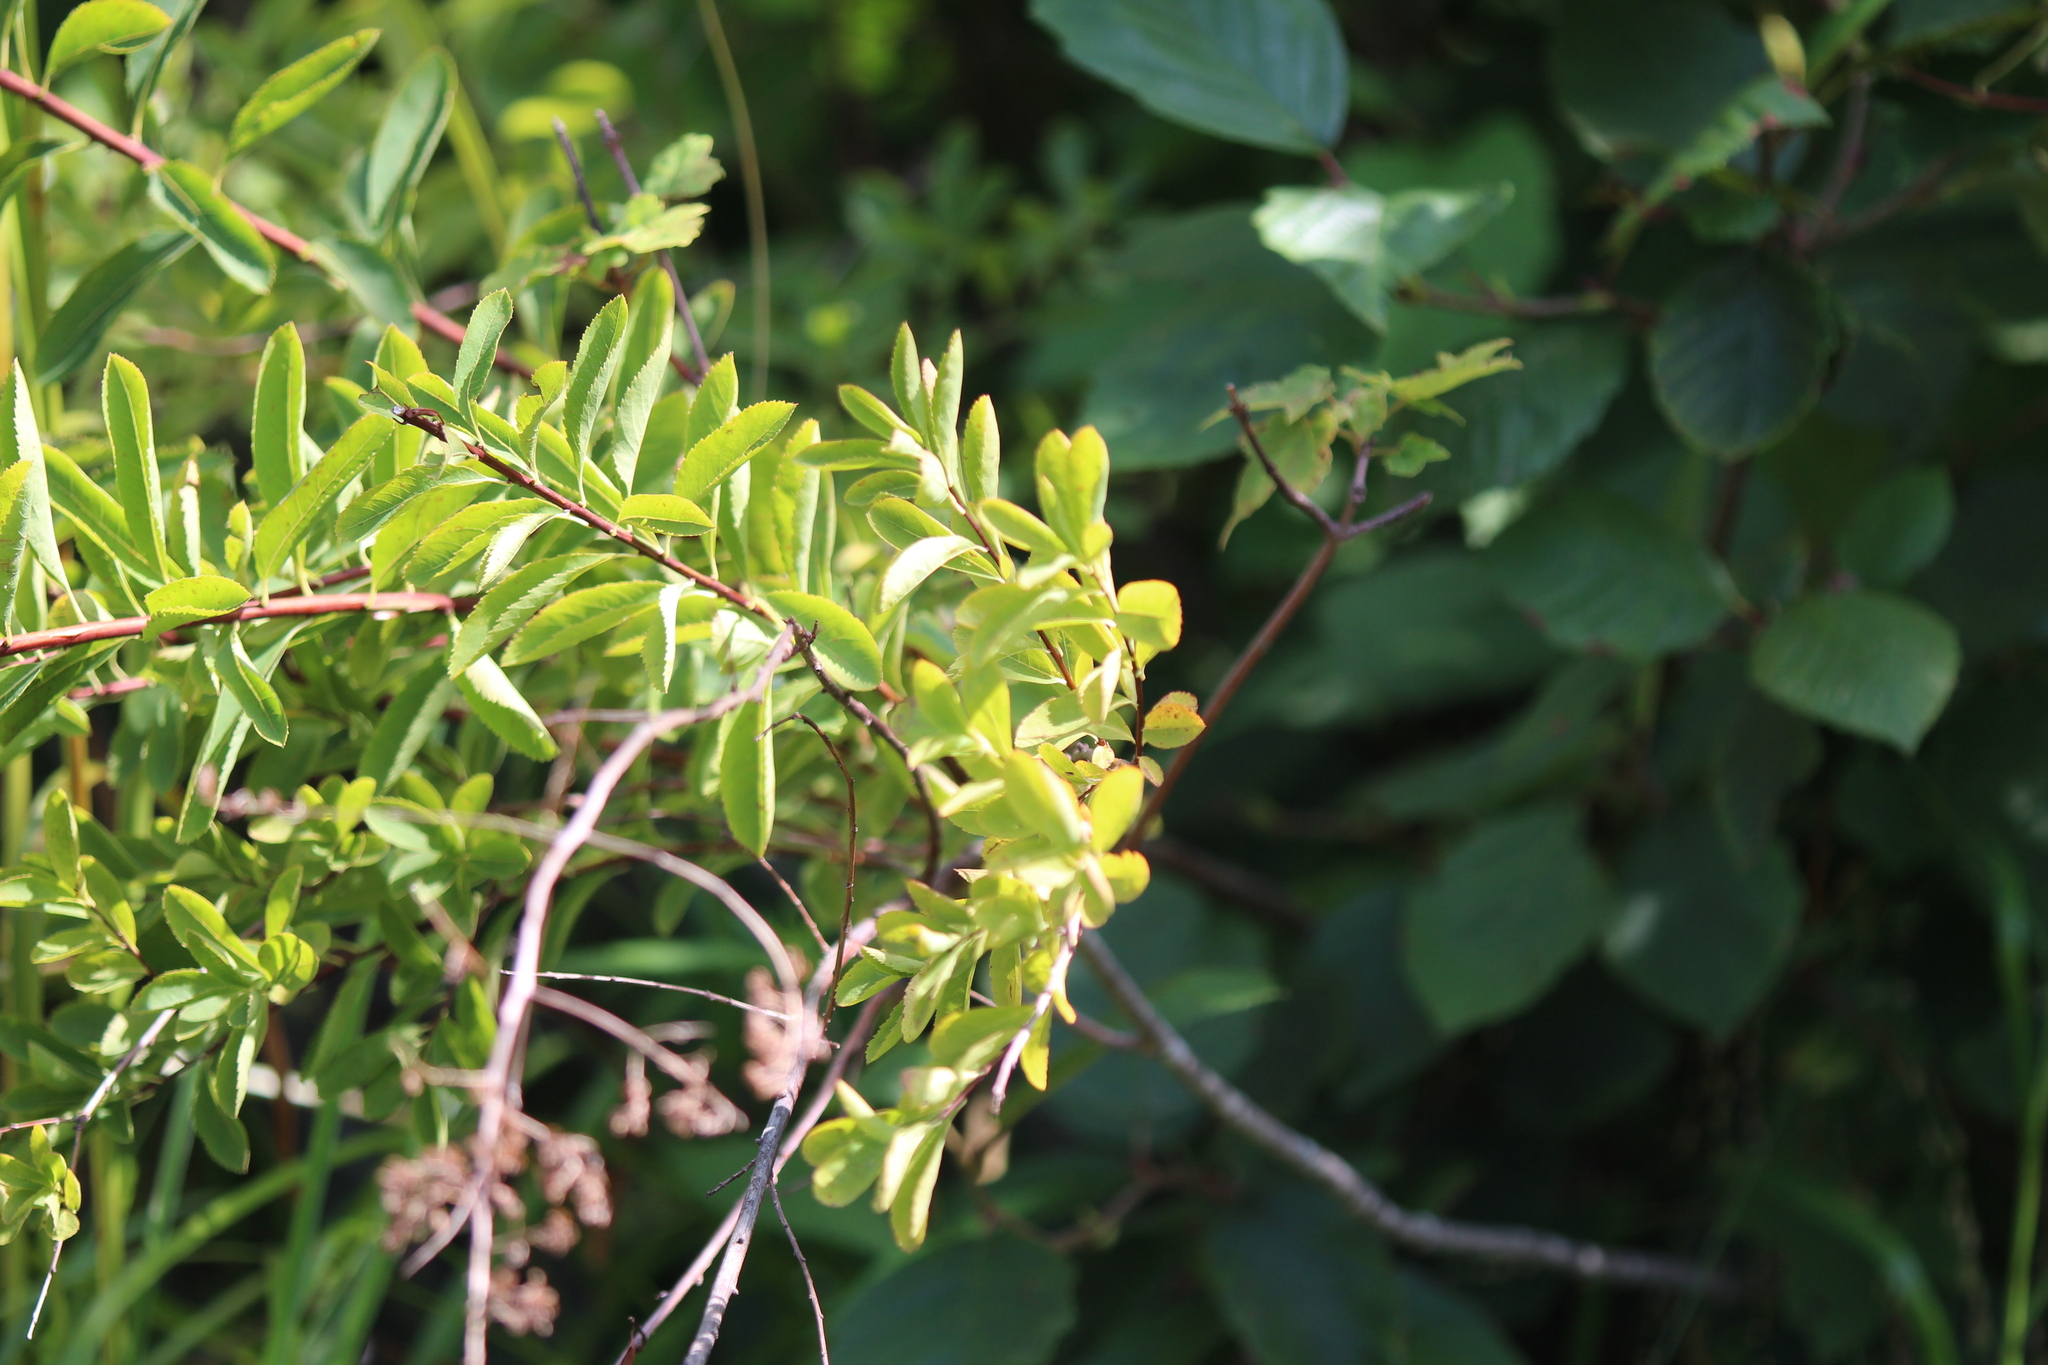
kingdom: Plantae
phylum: Tracheophyta
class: Magnoliopsida
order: Rosales
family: Rosaceae
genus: Spiraea
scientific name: Spiraea alba
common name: Pale bridewort
